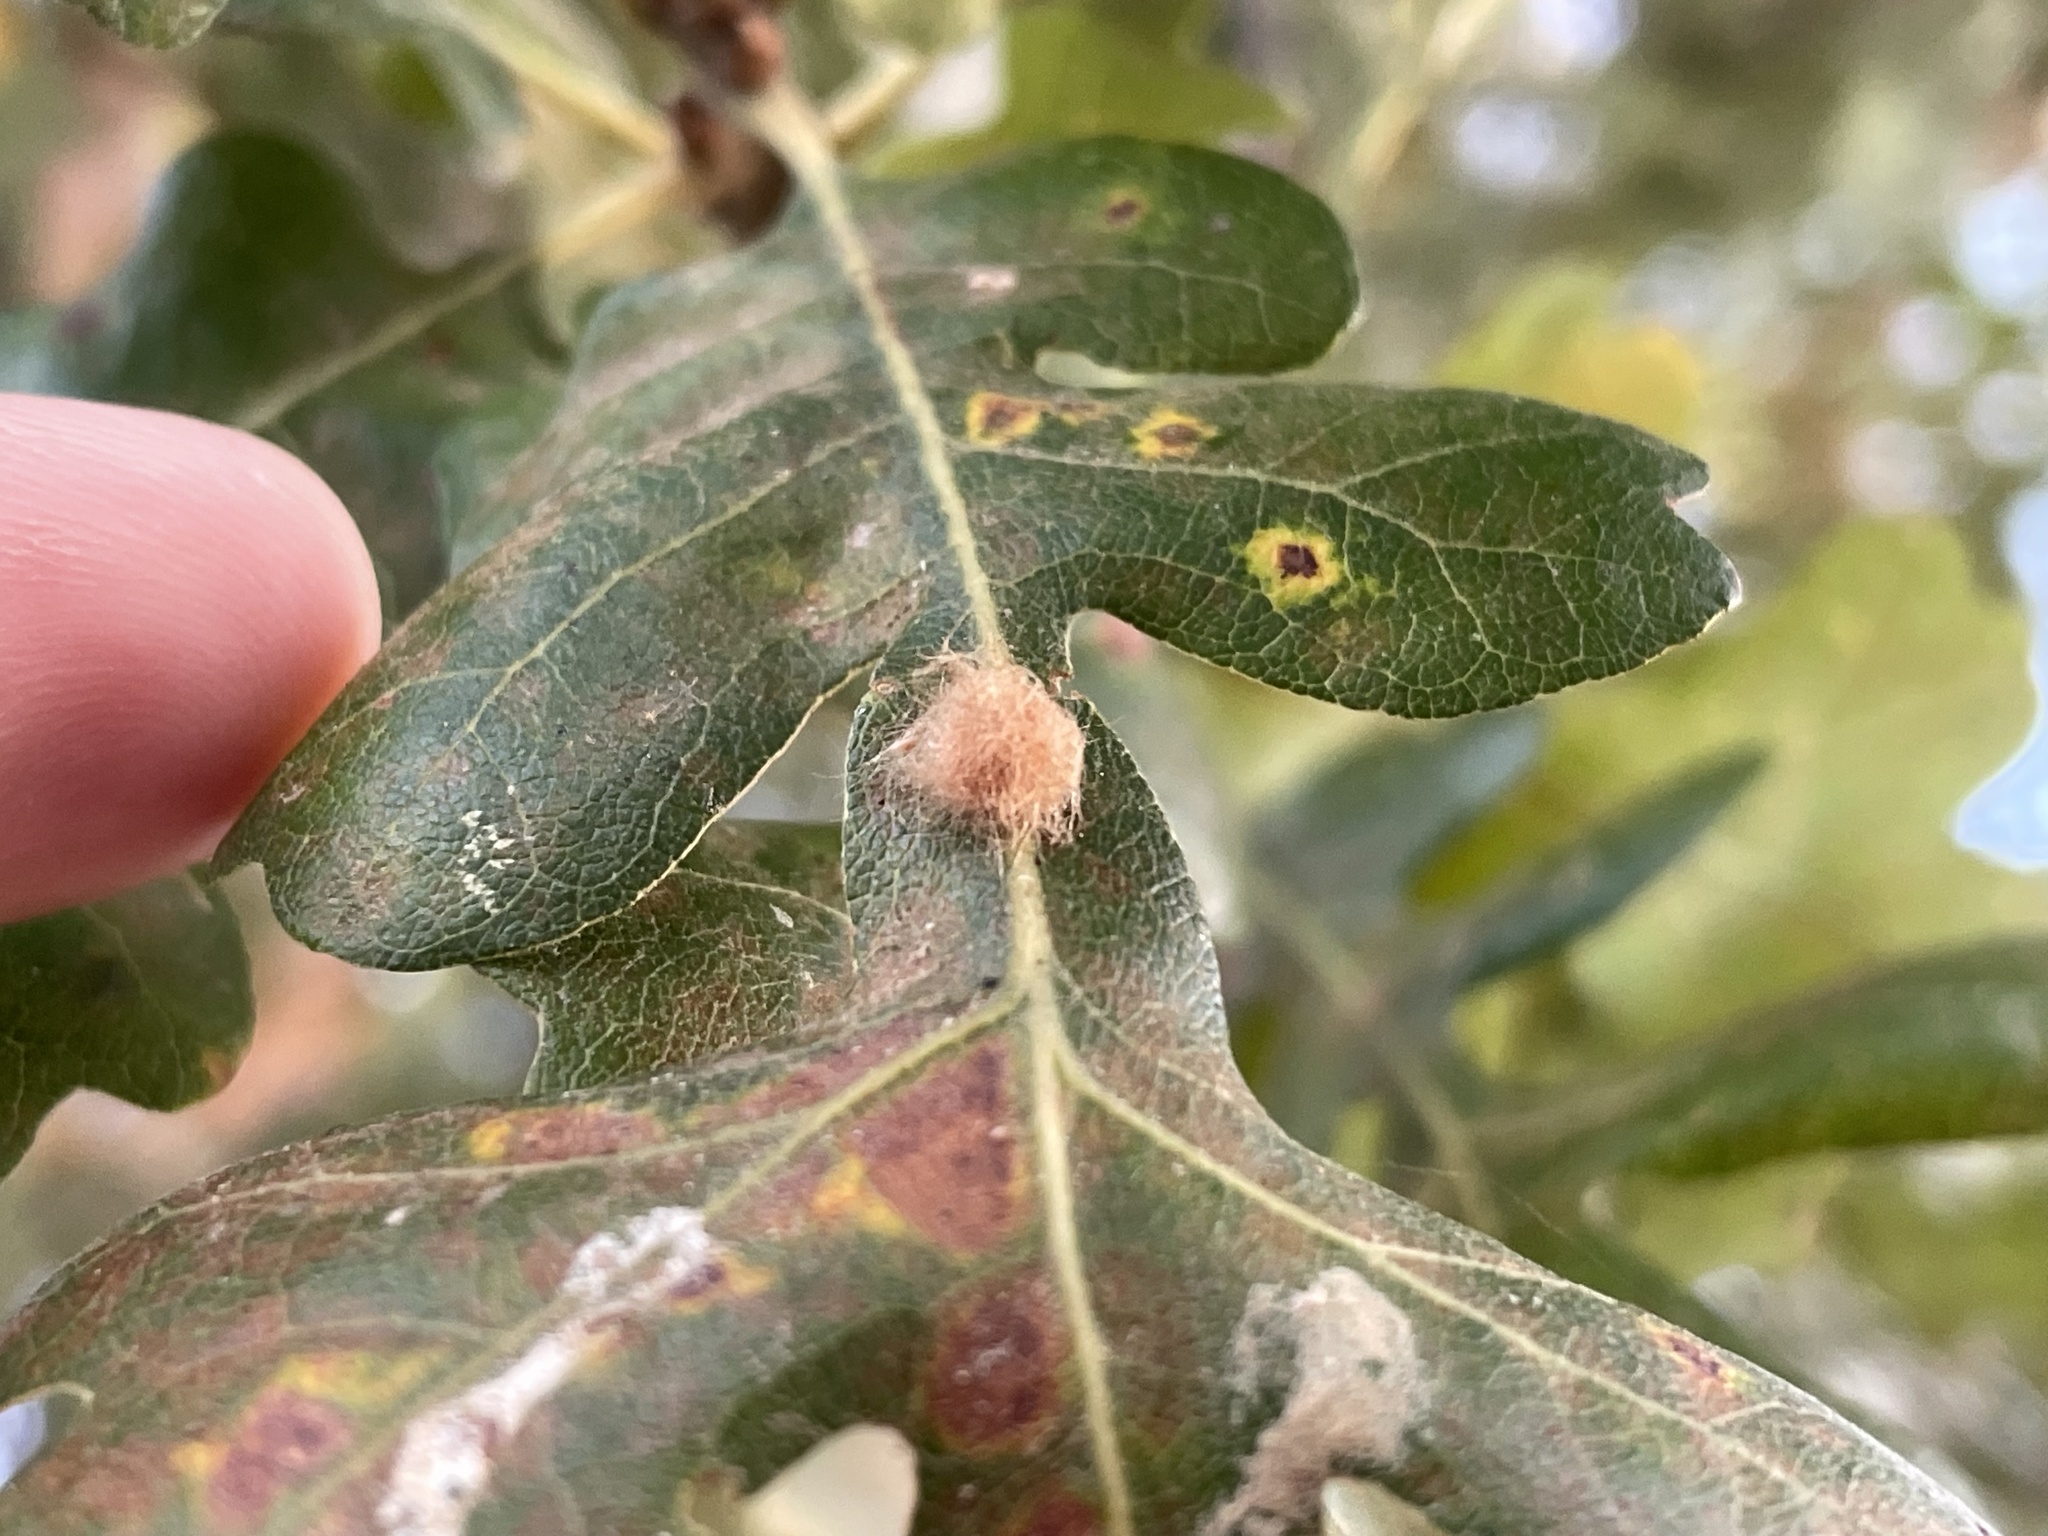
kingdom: Animalia
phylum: Arthropoda
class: Insecta
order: Hymenoptera
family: Cynipidae
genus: Andricus
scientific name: Andricus Druon fullawayi
